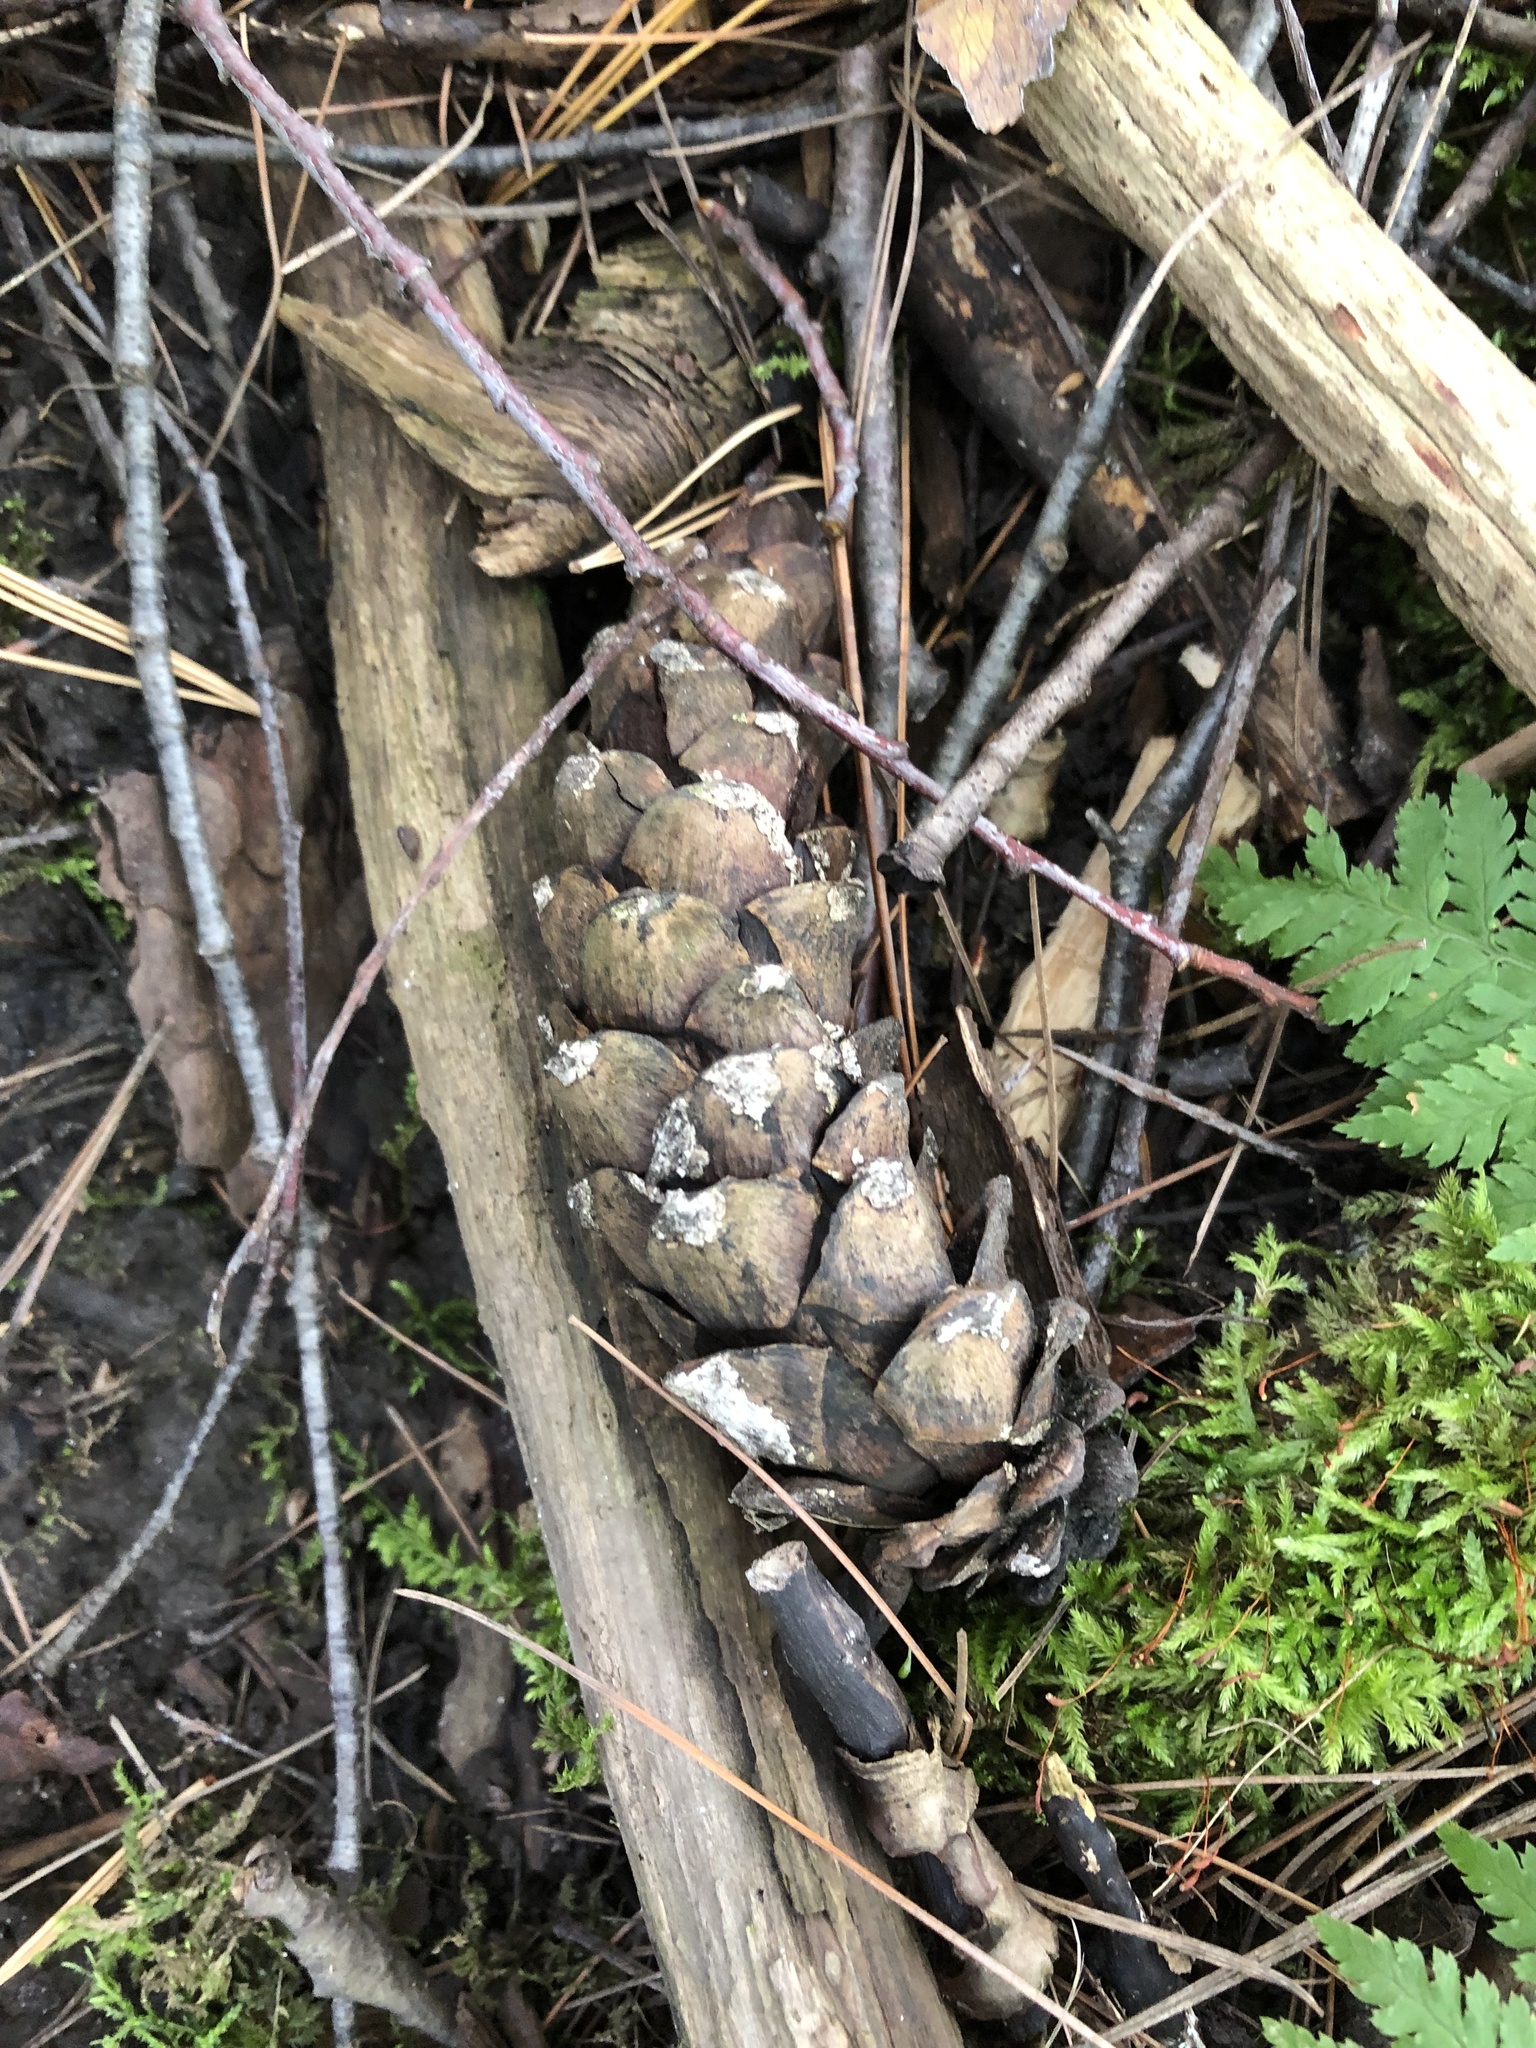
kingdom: Plantae
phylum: Tracheophyta
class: Pinopsida
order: Pinales
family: Pinaceae
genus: Pinus
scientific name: Pinus strobus
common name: Weymouth pine
